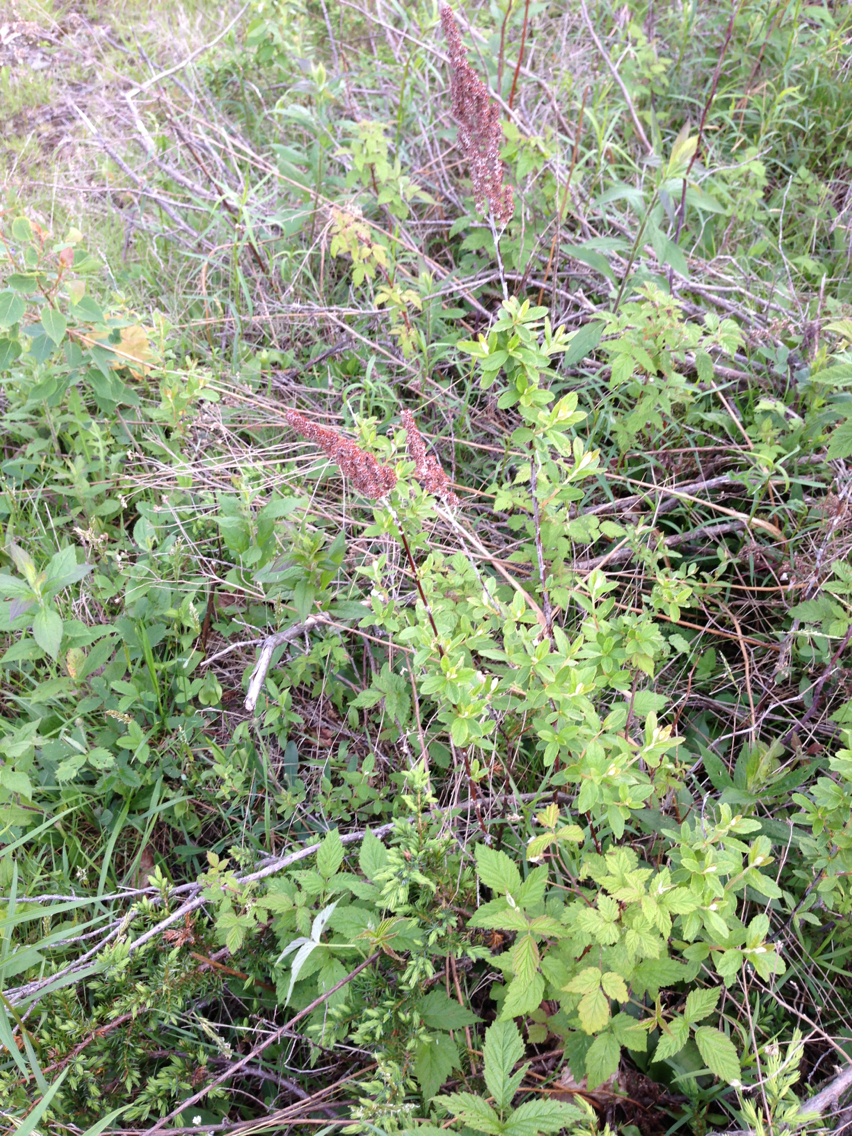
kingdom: Plantae
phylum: Tracheophyta
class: Magnoliopsida
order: Rosales
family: Rosaceae
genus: Spiraea
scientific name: Spiraea tomentosa
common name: Hardhack
